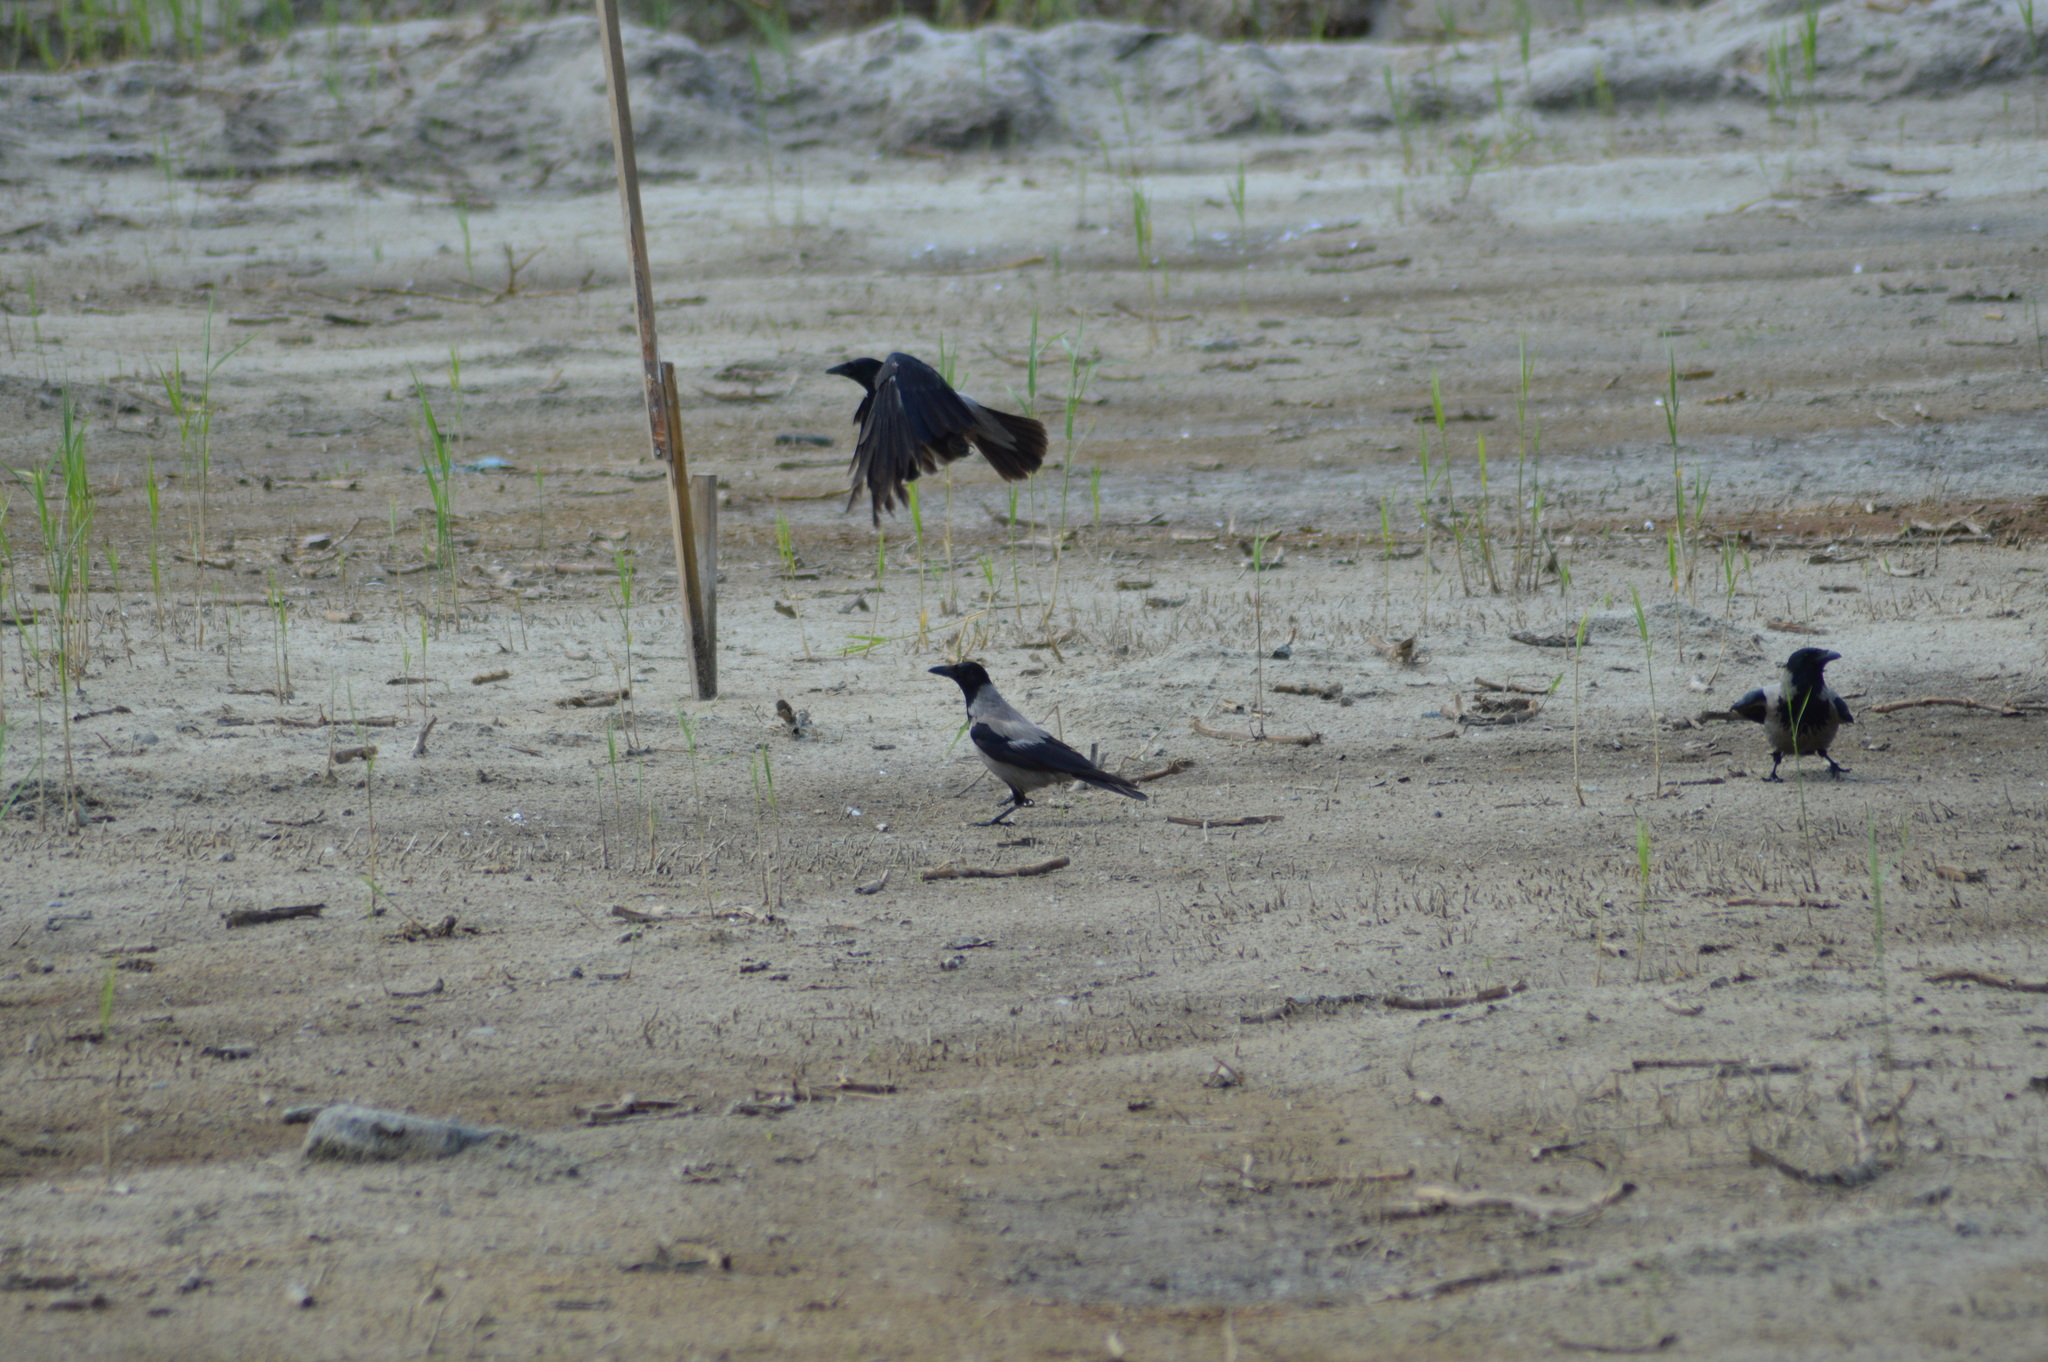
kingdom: Animalia
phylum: Chordata
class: Aves
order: Passeriformes
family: Corvidae
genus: Corvus
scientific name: Corvus cornix
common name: Hooded crow
